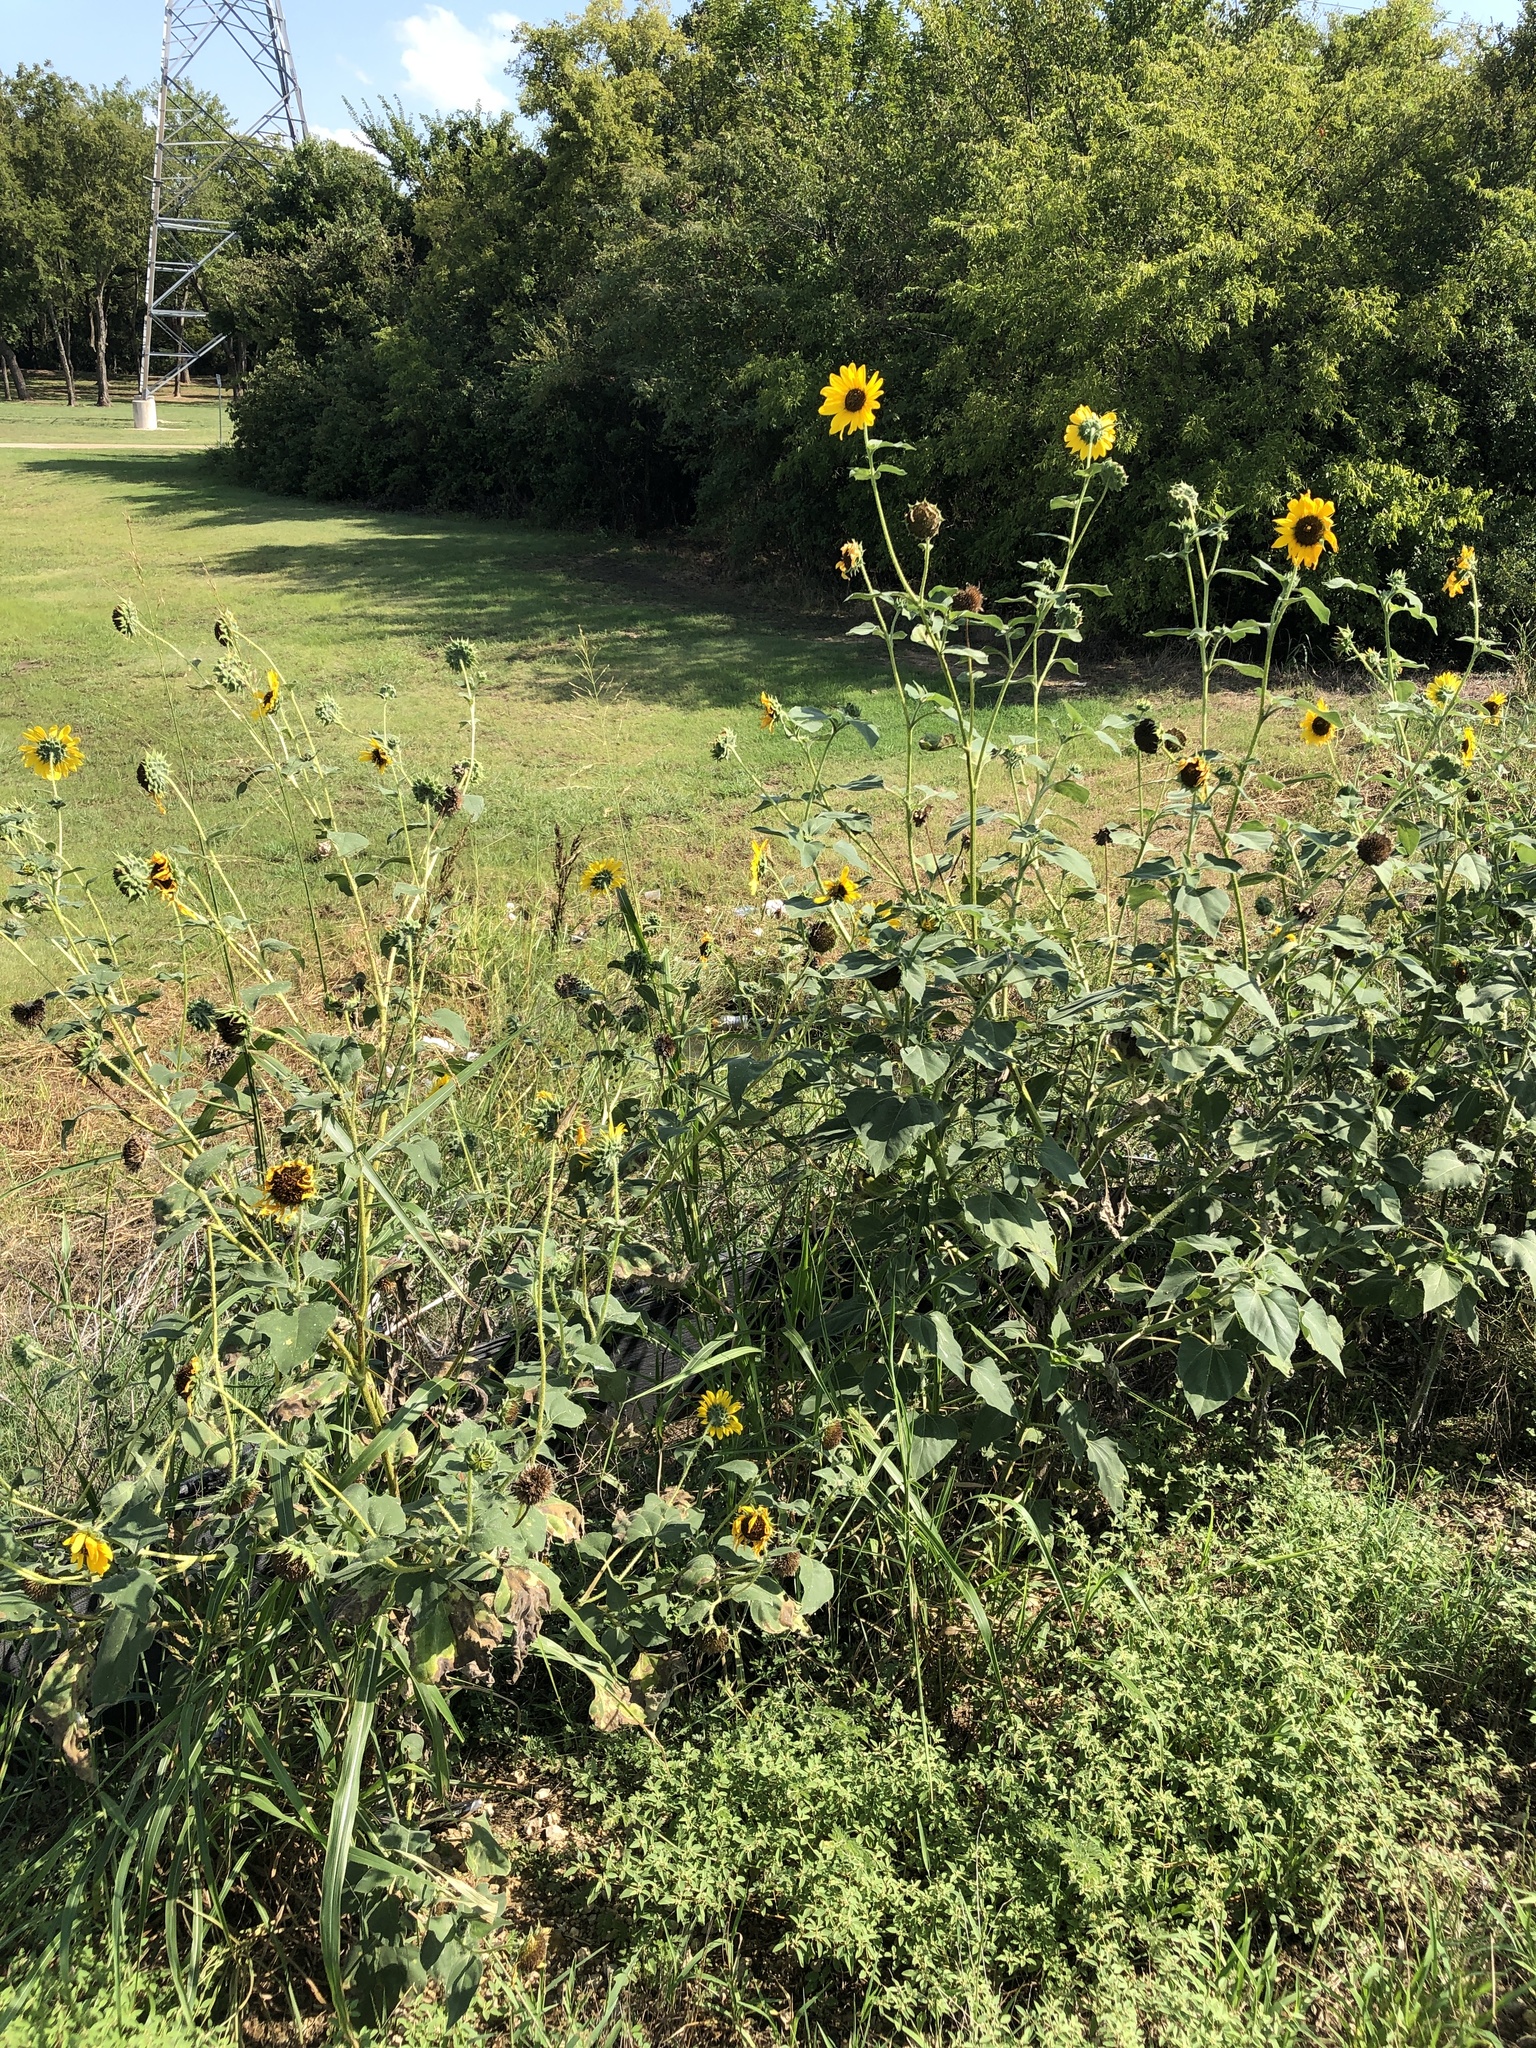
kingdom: Plantae
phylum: Tracheophyta
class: Magnoliopsida
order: Asterales
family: Asteraceae
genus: Helianthus
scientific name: Helianthus annuus
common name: Sunflower
